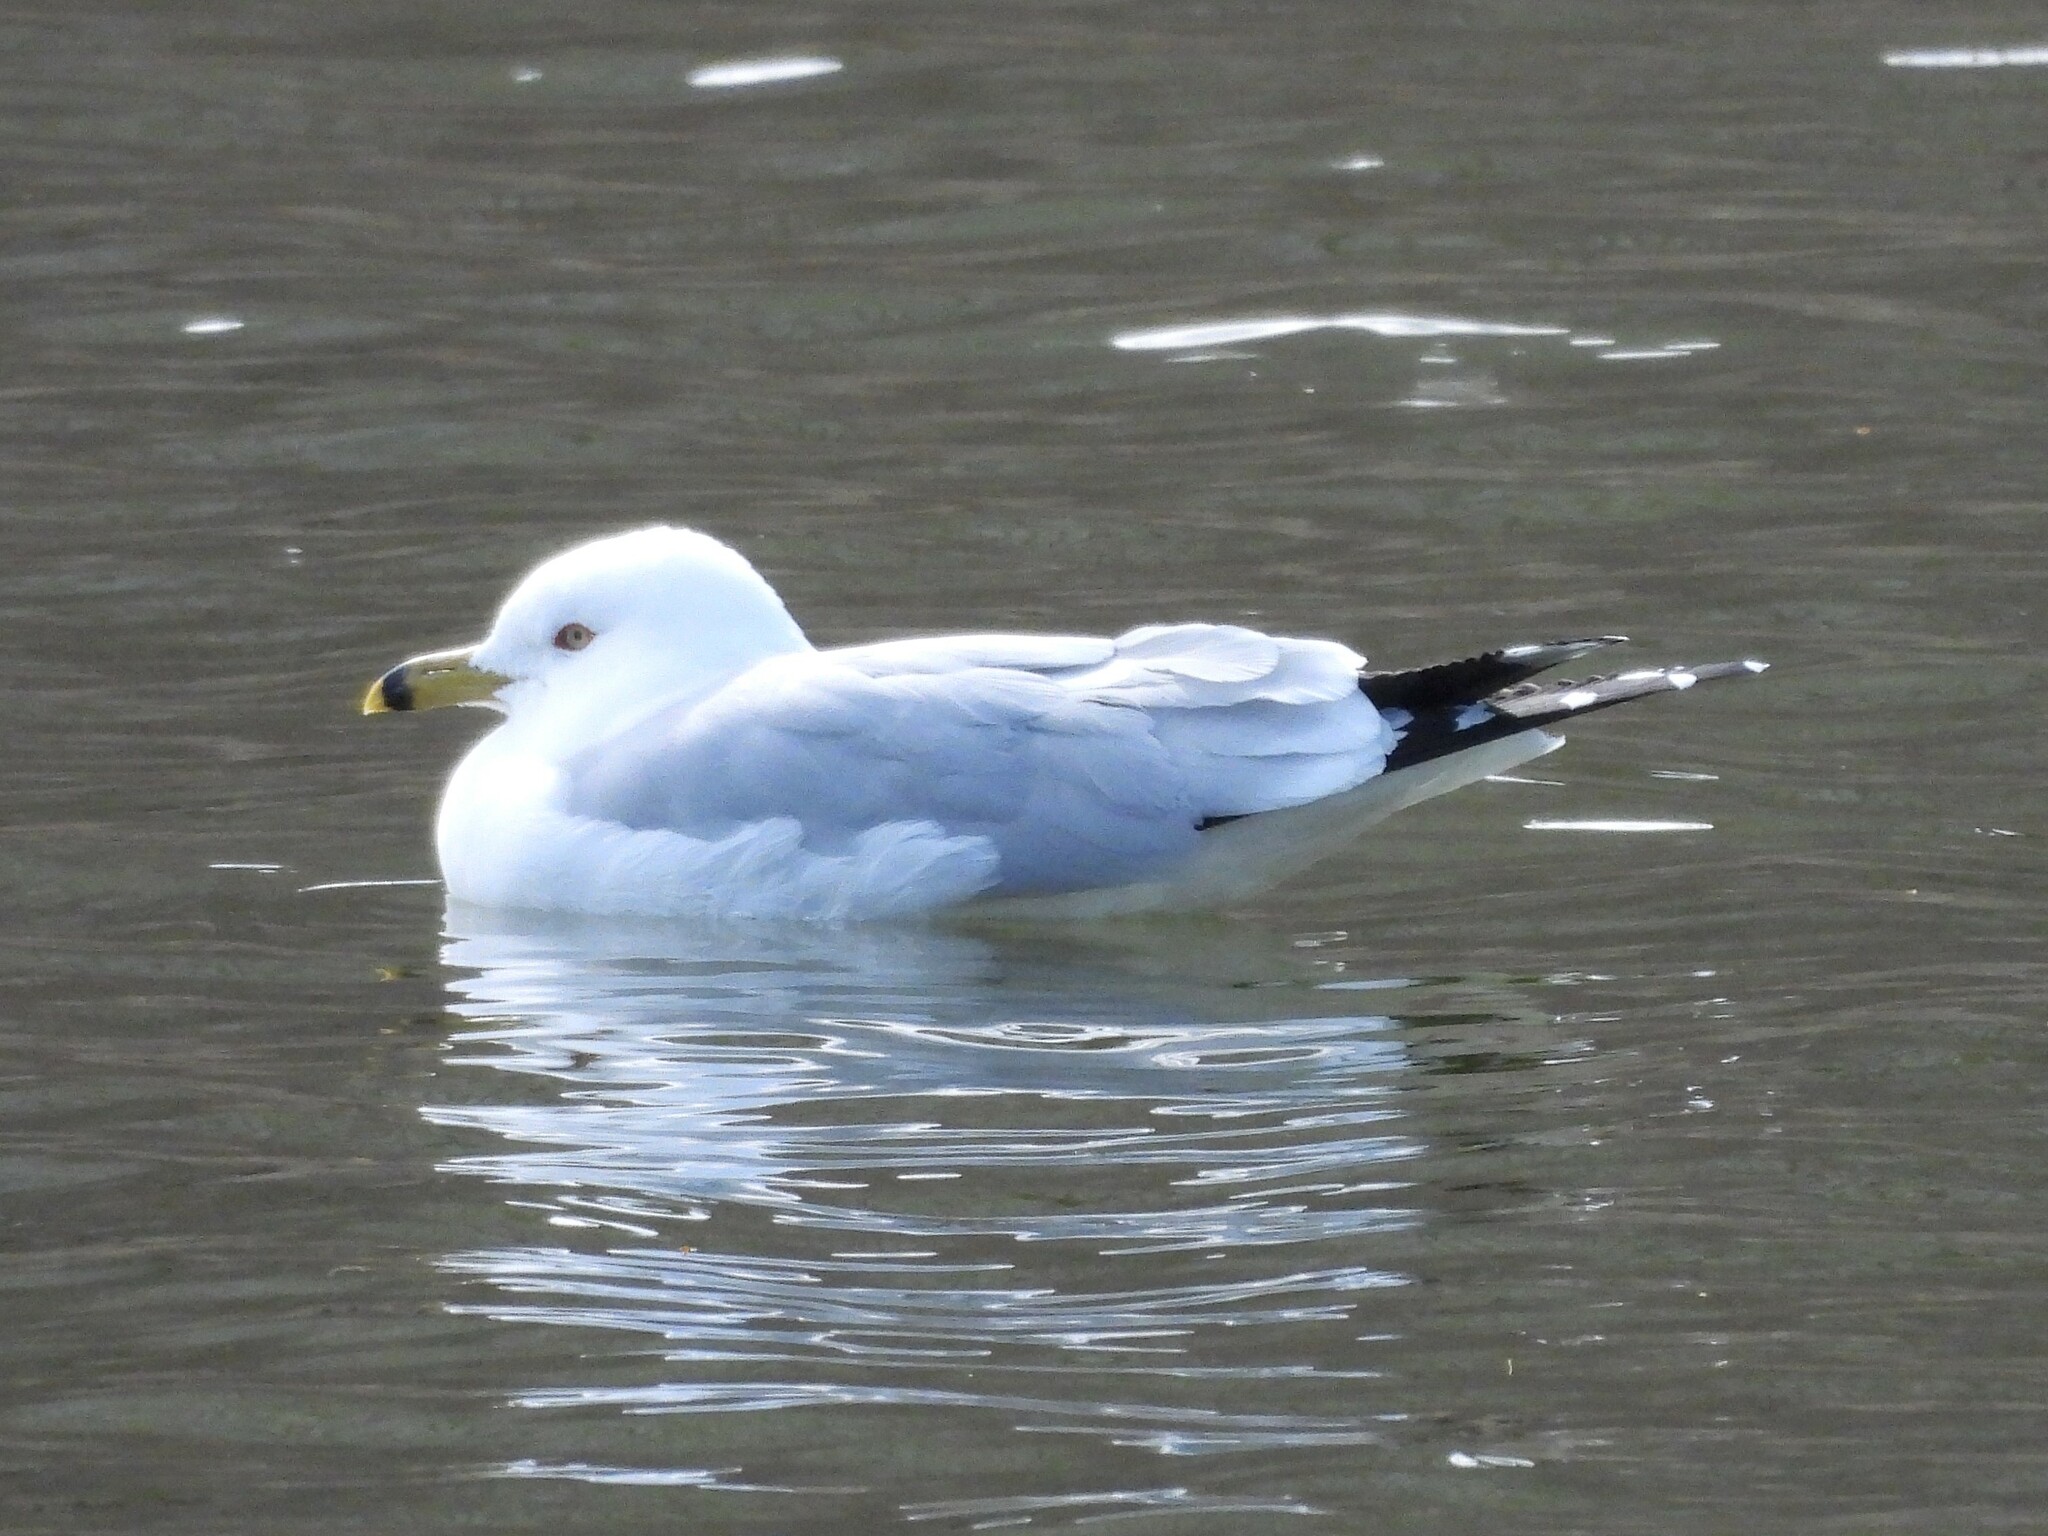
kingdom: Animalia
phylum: Chordata
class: Aves
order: Charadriiformes
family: Laridae
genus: Larus
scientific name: Larus delawarensis
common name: Ring-billed gull
